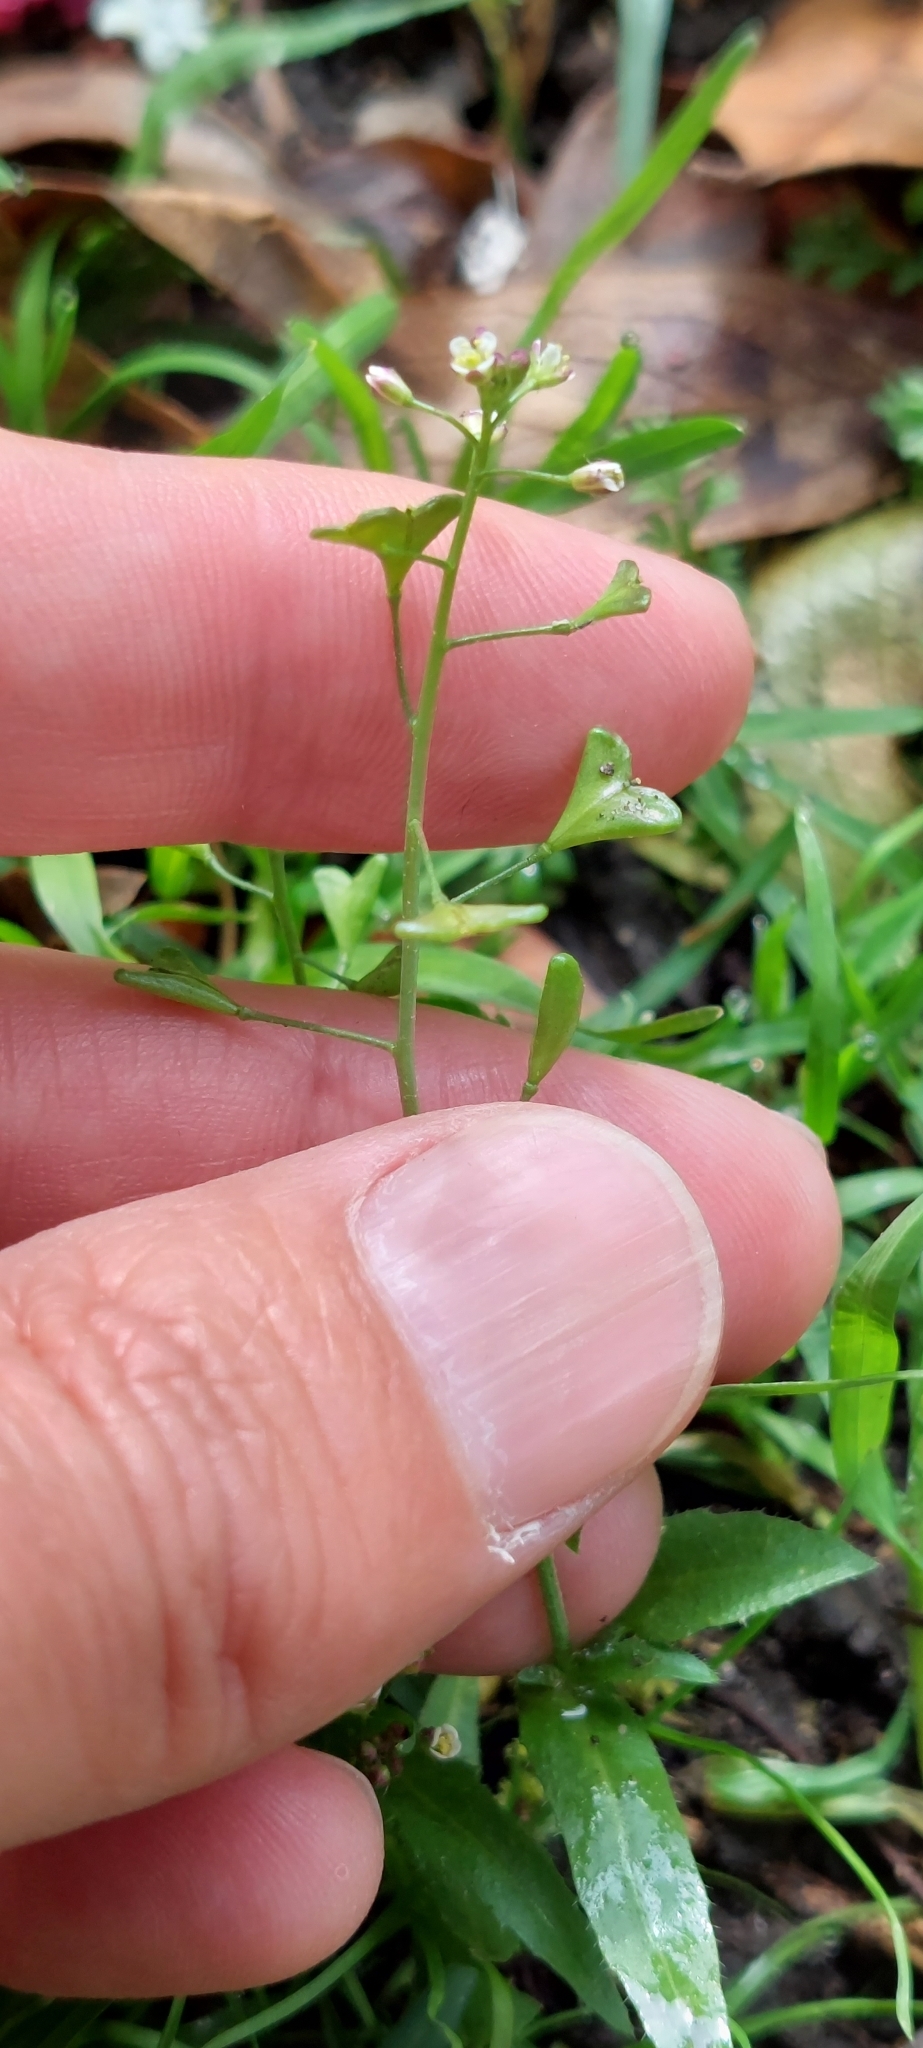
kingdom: Plantae
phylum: Tracheophyta
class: Magnoliopsida
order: Brassicales
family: Brassicaceae
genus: Capsella
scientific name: Capsella bursa-pastoris
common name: Shepherd's purse
